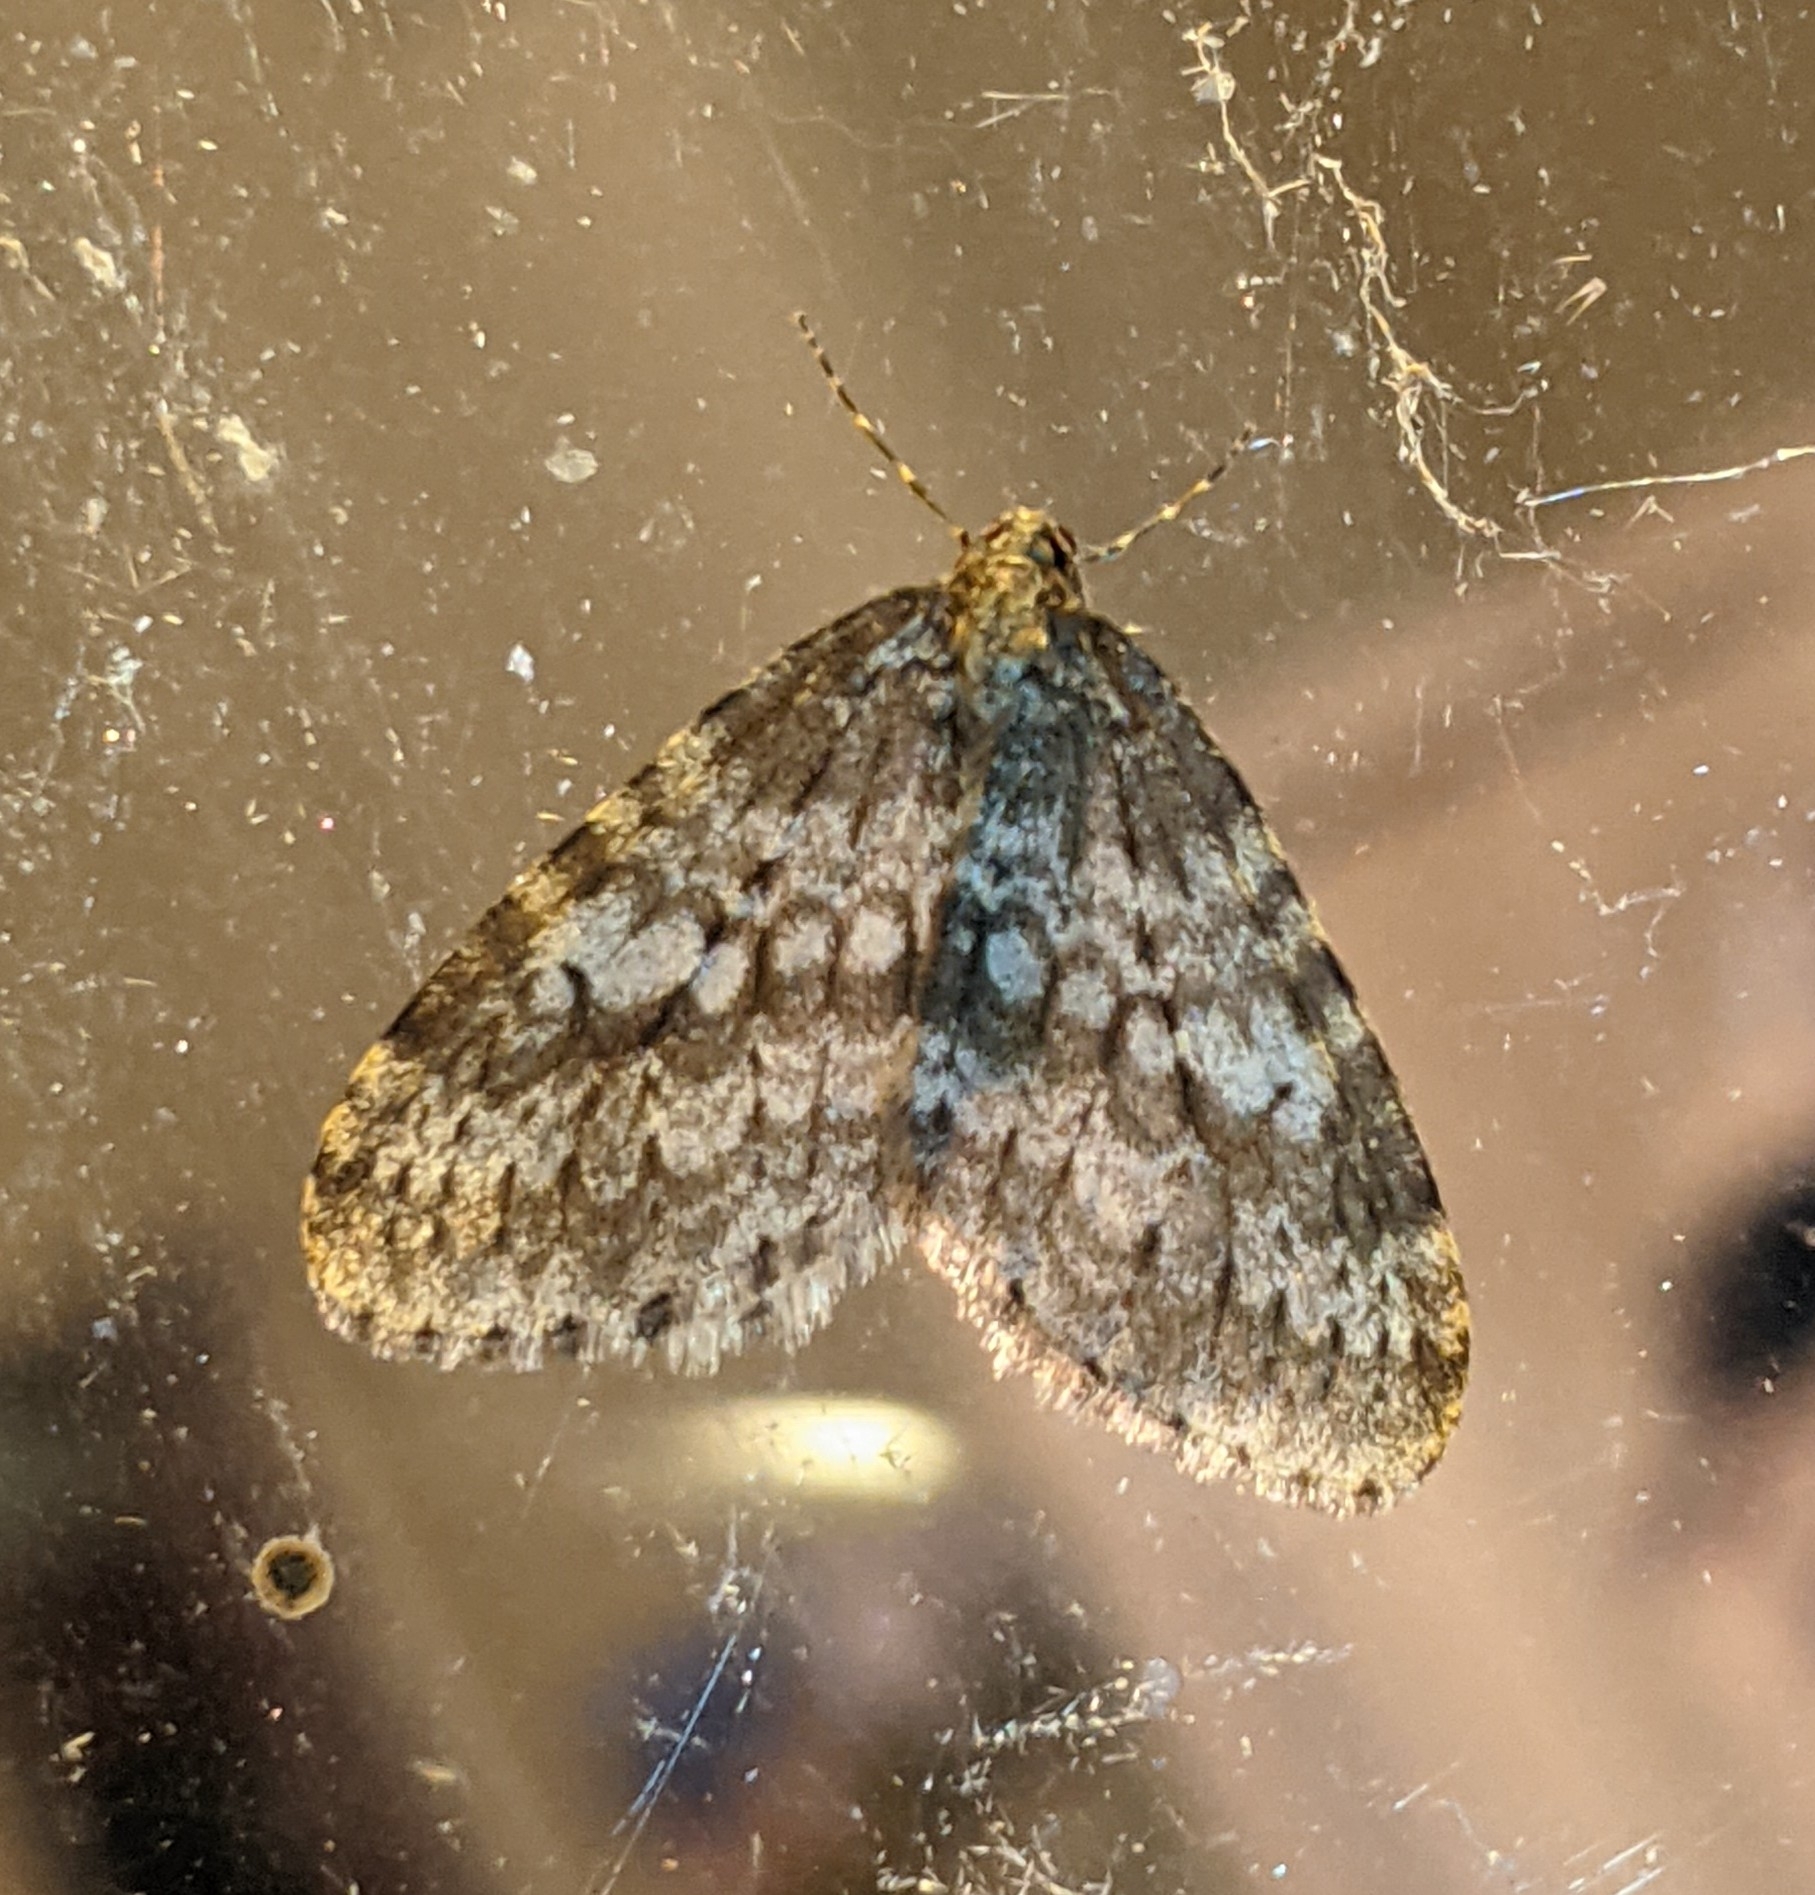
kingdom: Animalia
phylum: Arthropoda
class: Insecta
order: Lepidoptera
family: Geometridae
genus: Operophtera
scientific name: Operophtera occidentalis
